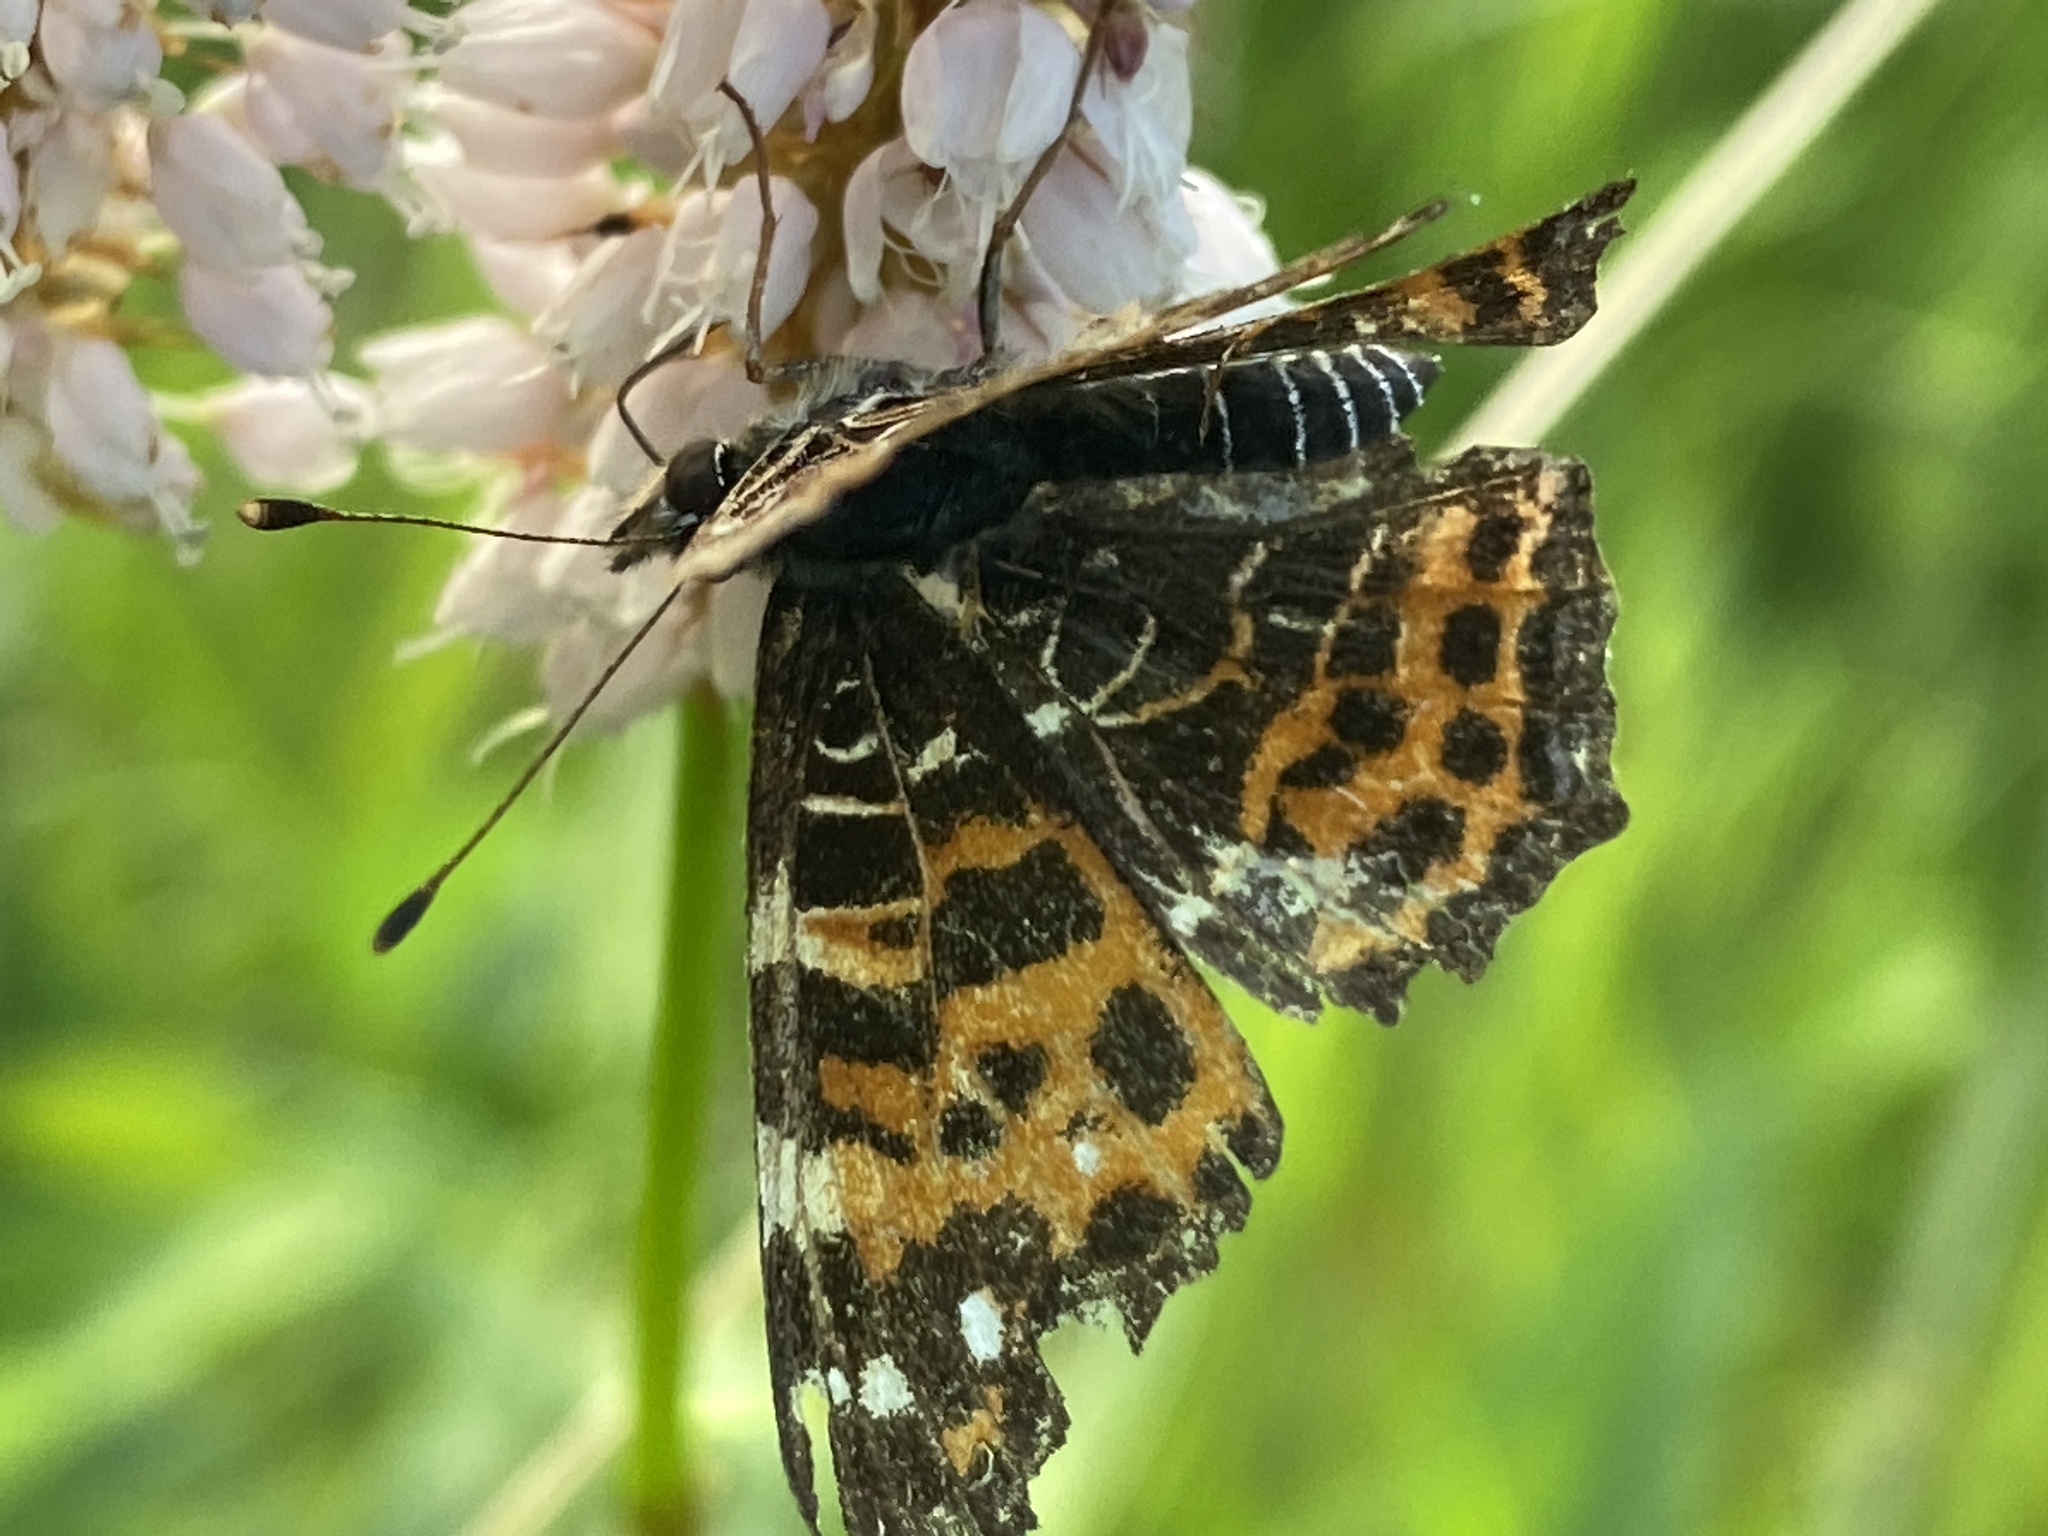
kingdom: Animalia
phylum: Arthropoda
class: Insecta
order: Lepidoptera
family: Nymphalidae
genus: Araschnia
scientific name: Araschnia levana
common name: Map butterfly
